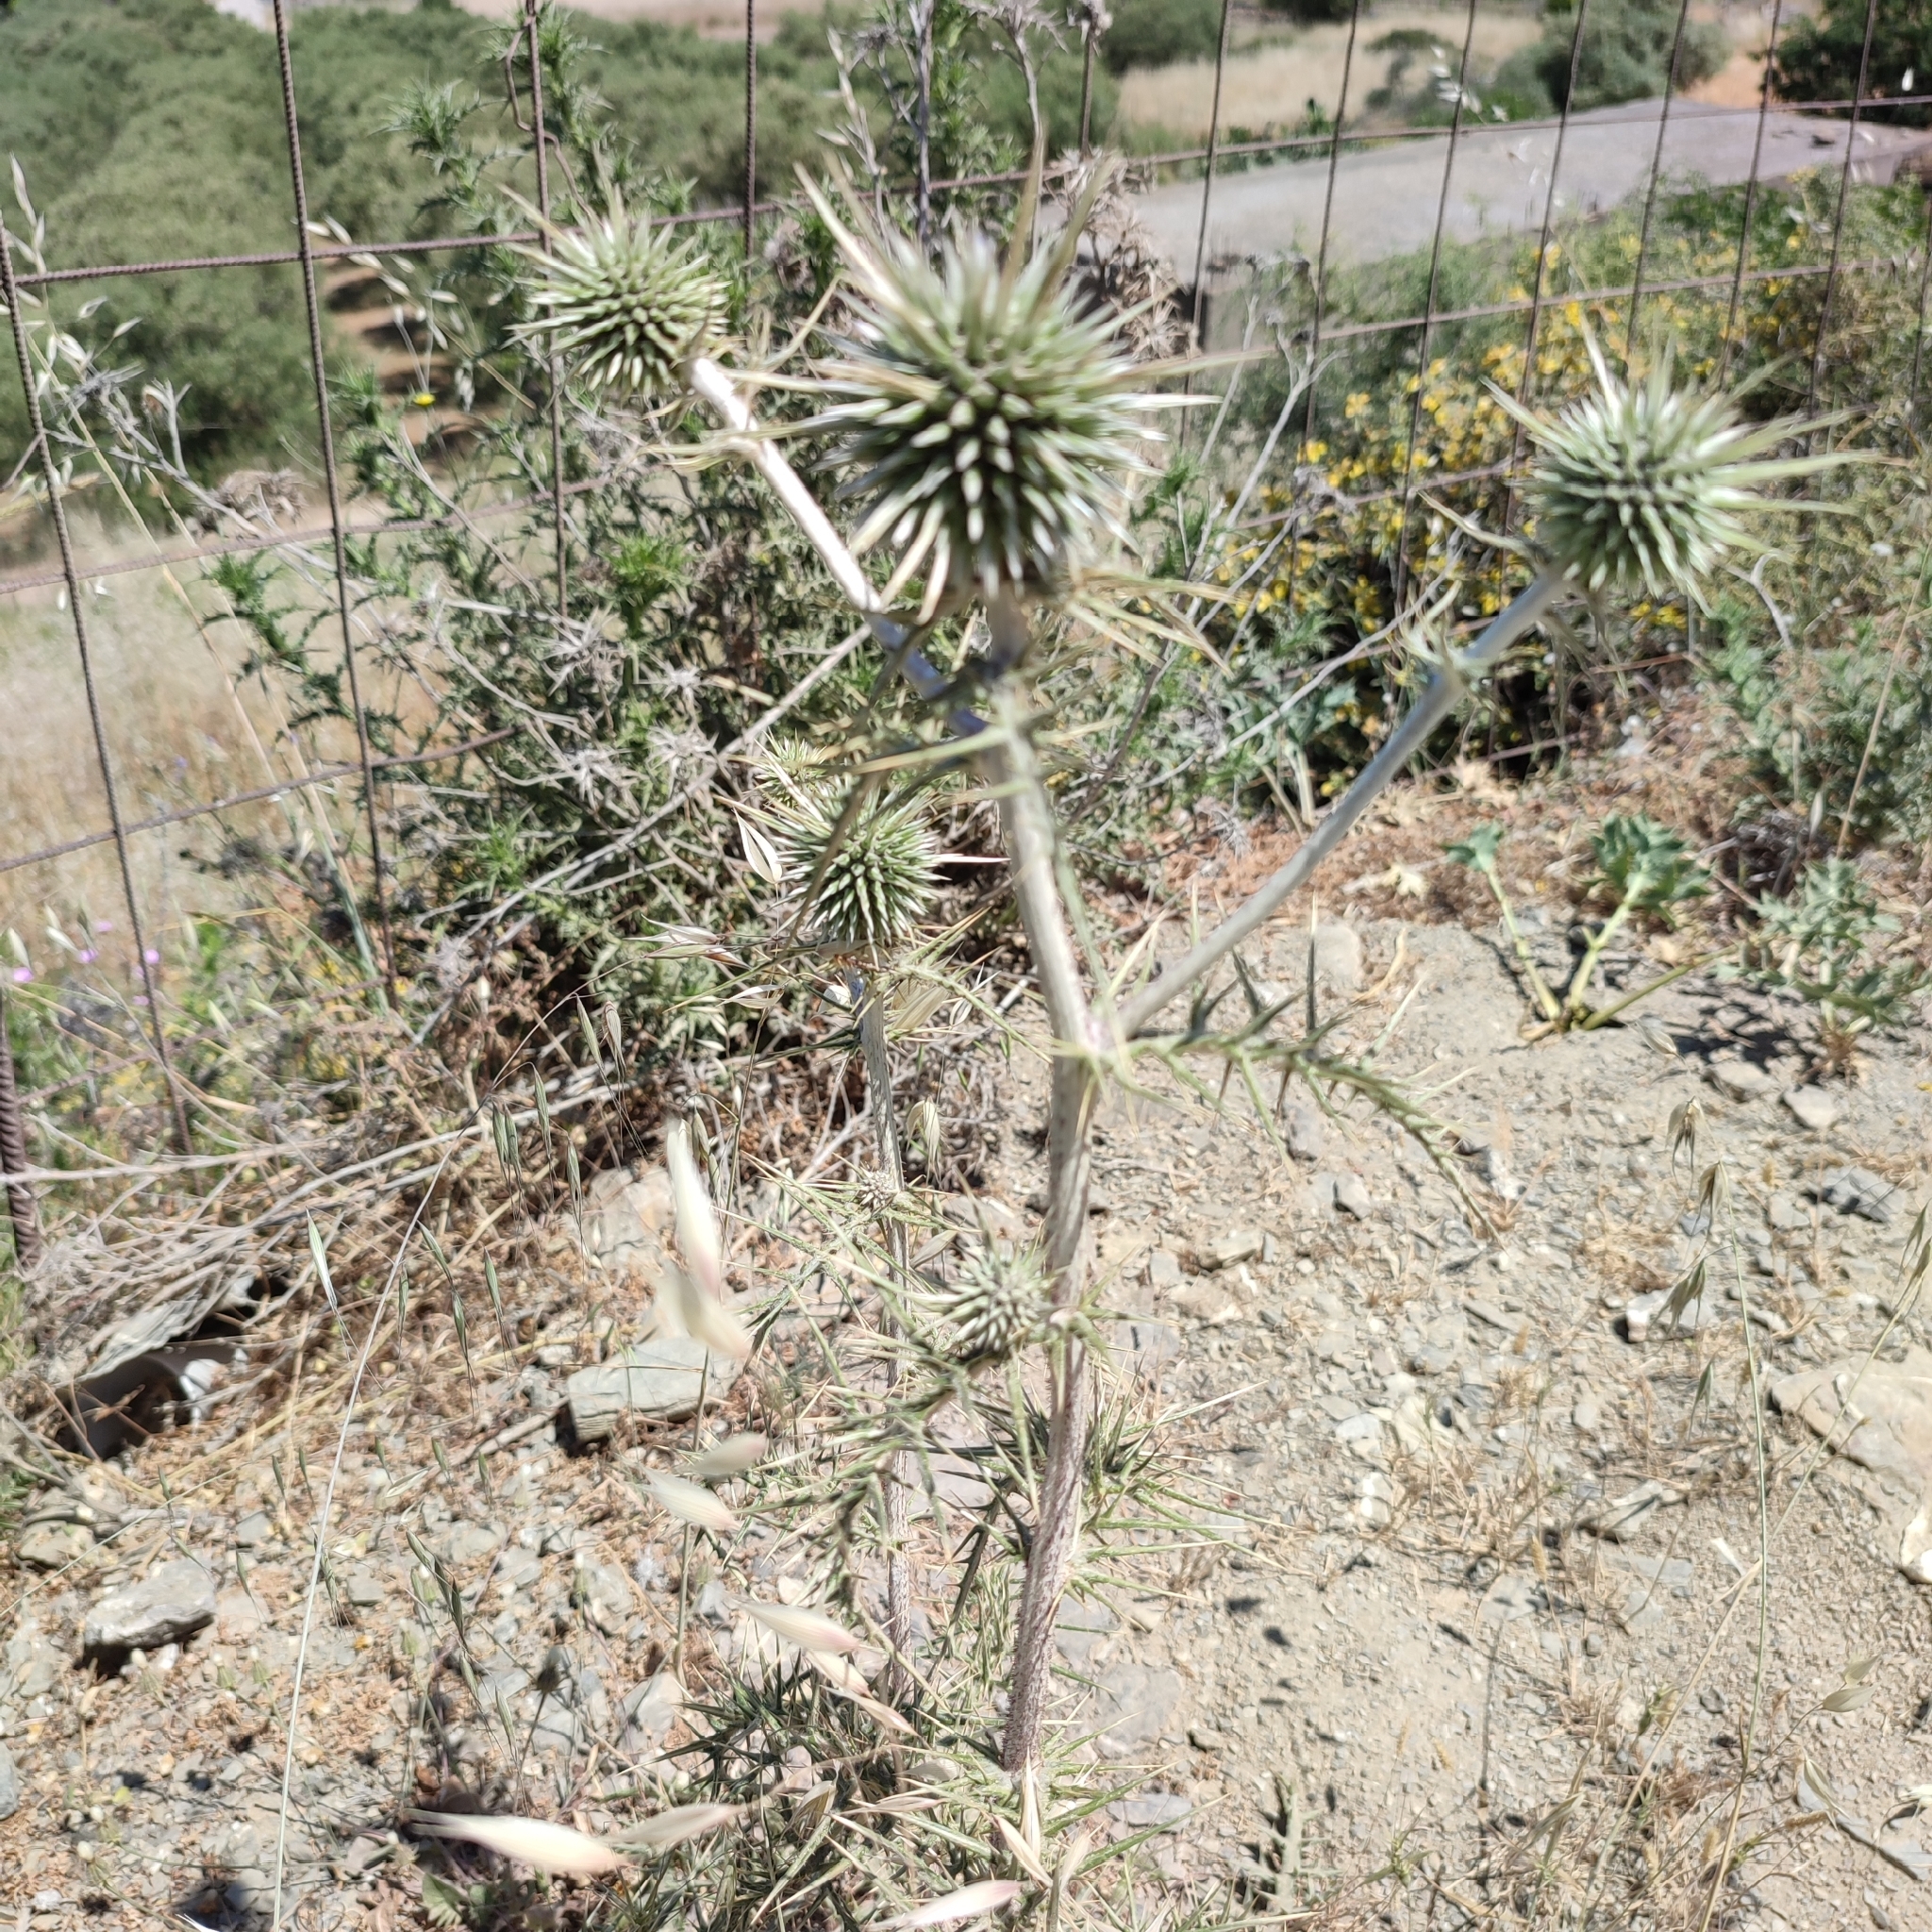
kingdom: Plantae
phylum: Tracheophyta
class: Magnoliopsida
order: Asterales
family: Asteraceae
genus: Echinops
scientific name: Echinops spinosissimus
